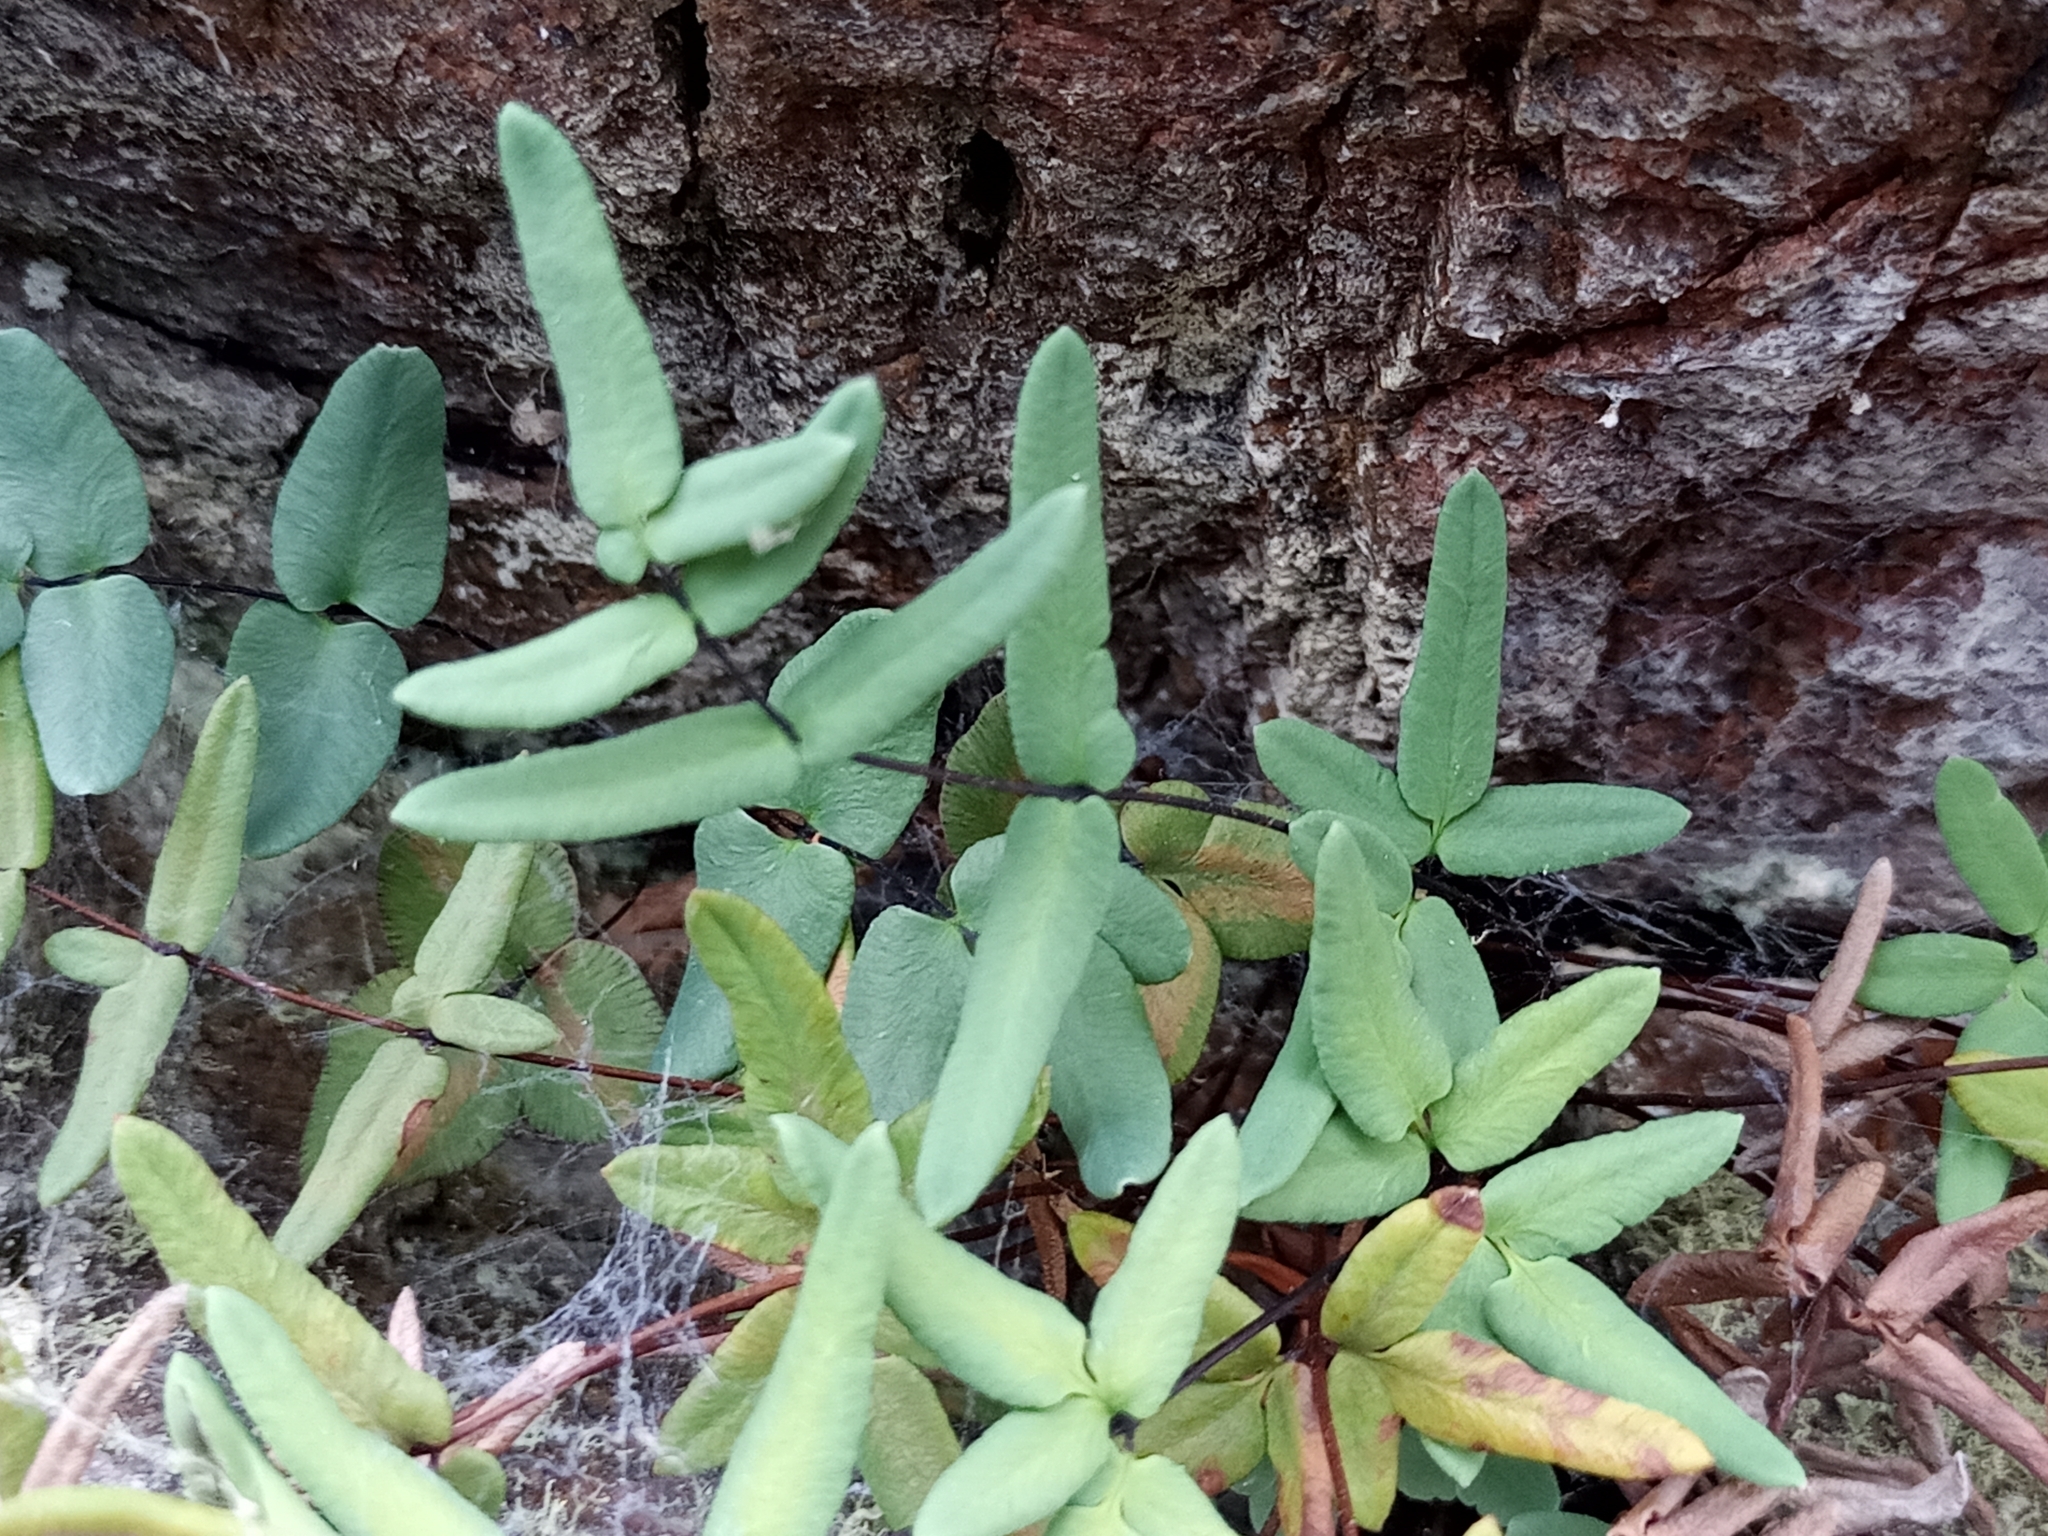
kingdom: Plantae
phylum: Tracheophyta
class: Polypodiopsida
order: Polypodiales
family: Pteridaceae
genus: Pellaea
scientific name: Pellaea glabella
